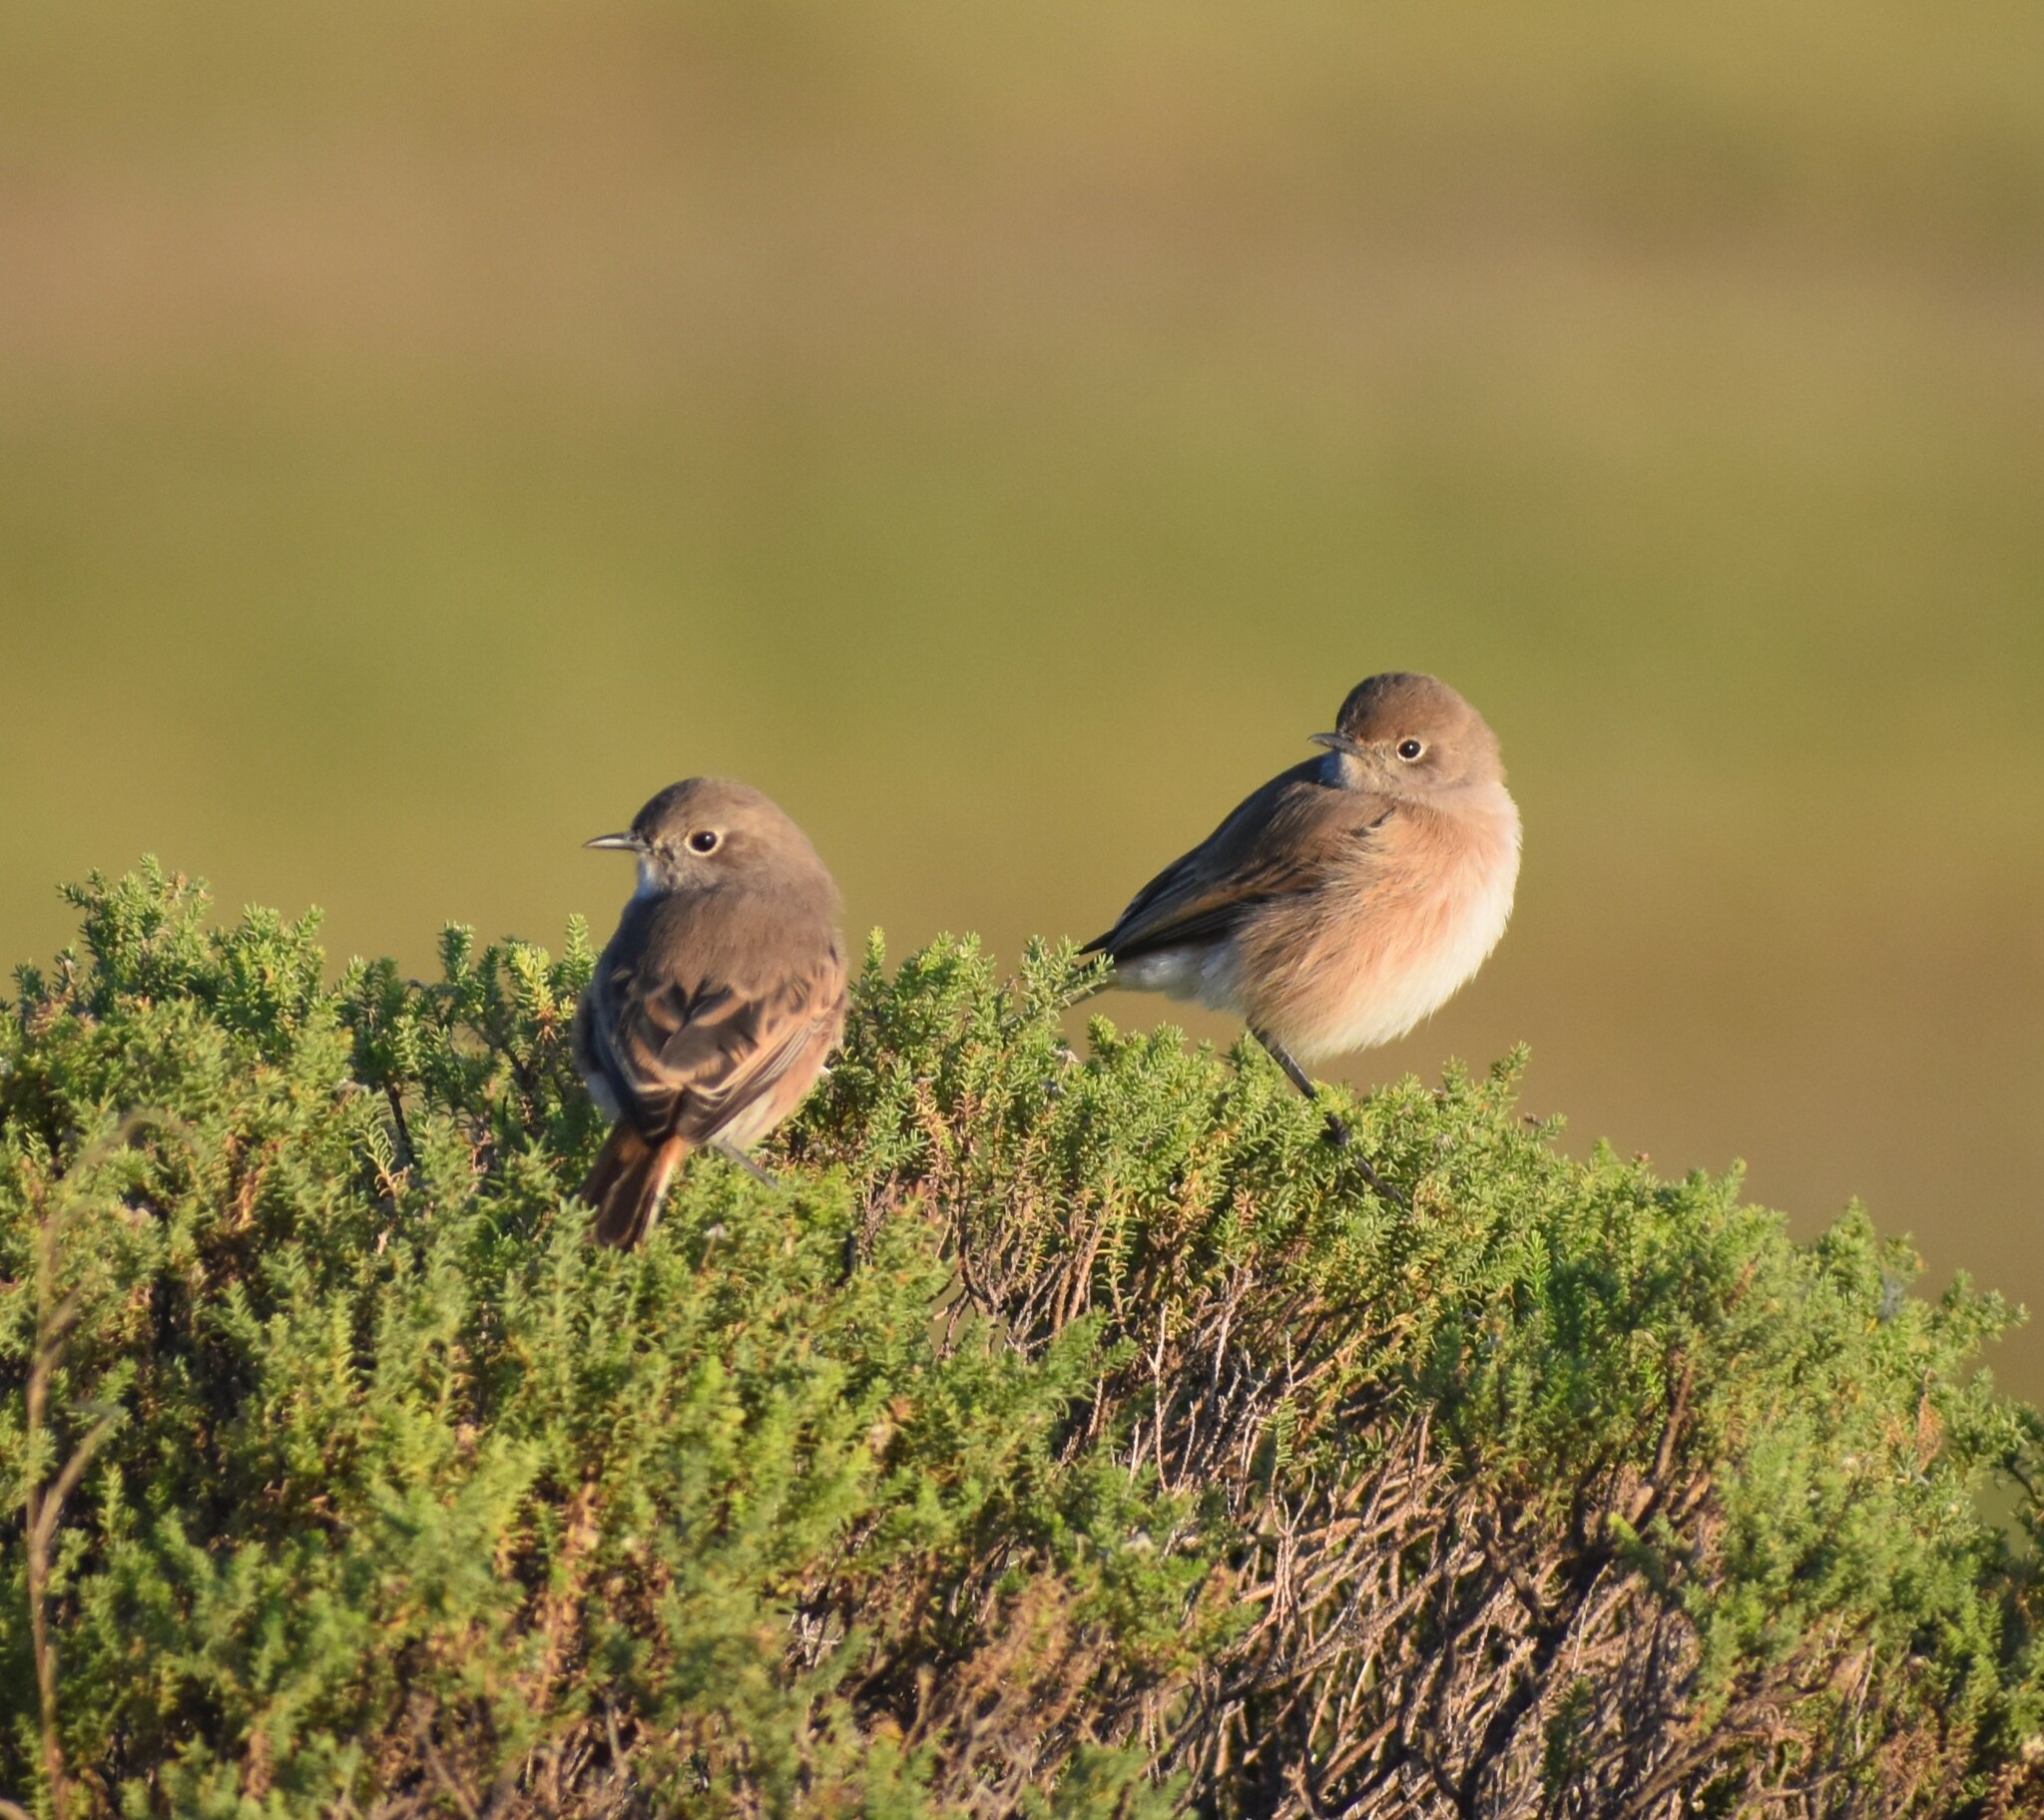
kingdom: Animalia
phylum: Chordata
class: Aves
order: Passeriformes
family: Muscicapidae
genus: Emarginata
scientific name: Emarginata sinuata
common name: Sickle-winged chat
